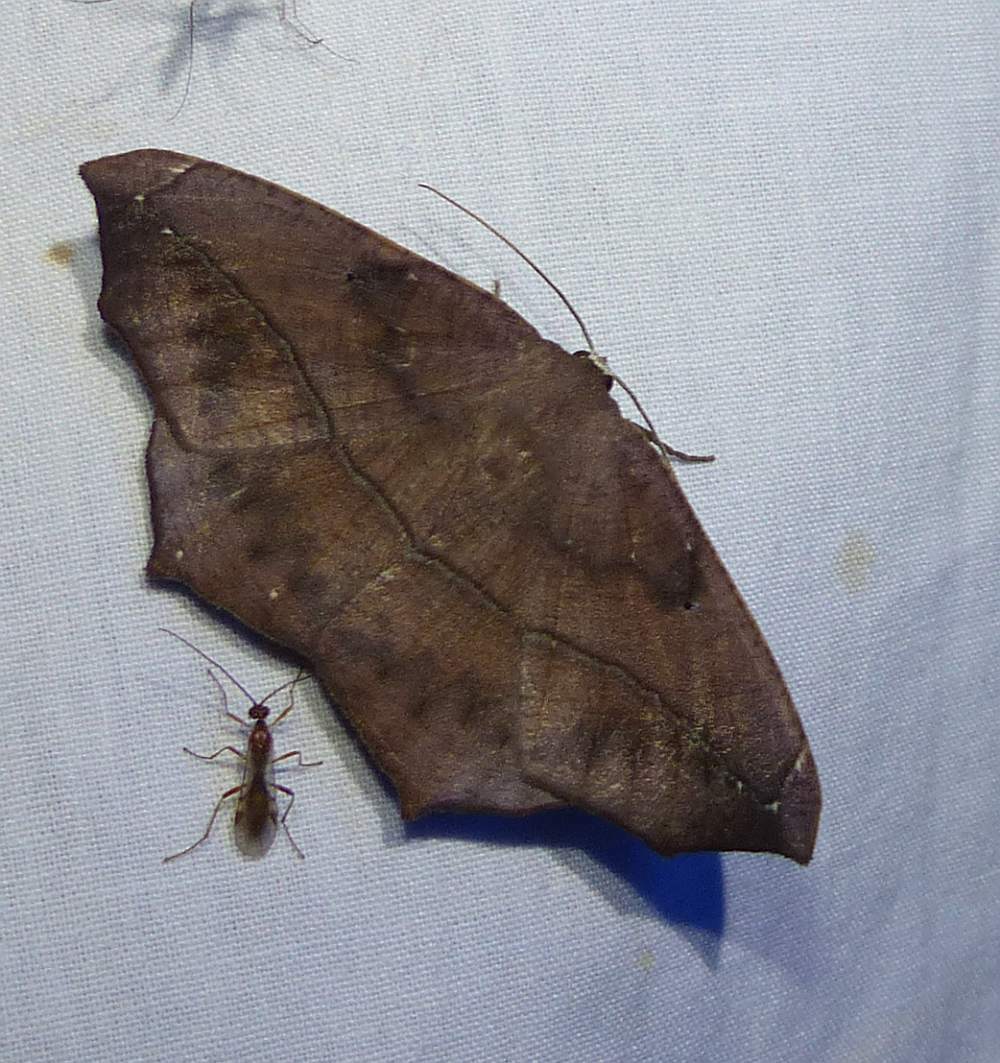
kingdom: Animalia
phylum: Arthropoda
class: Insecta
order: Lepidoptera
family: Geometridae
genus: Prochoerodes
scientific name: Prochoerodes lineola
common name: Large maple spanworm
